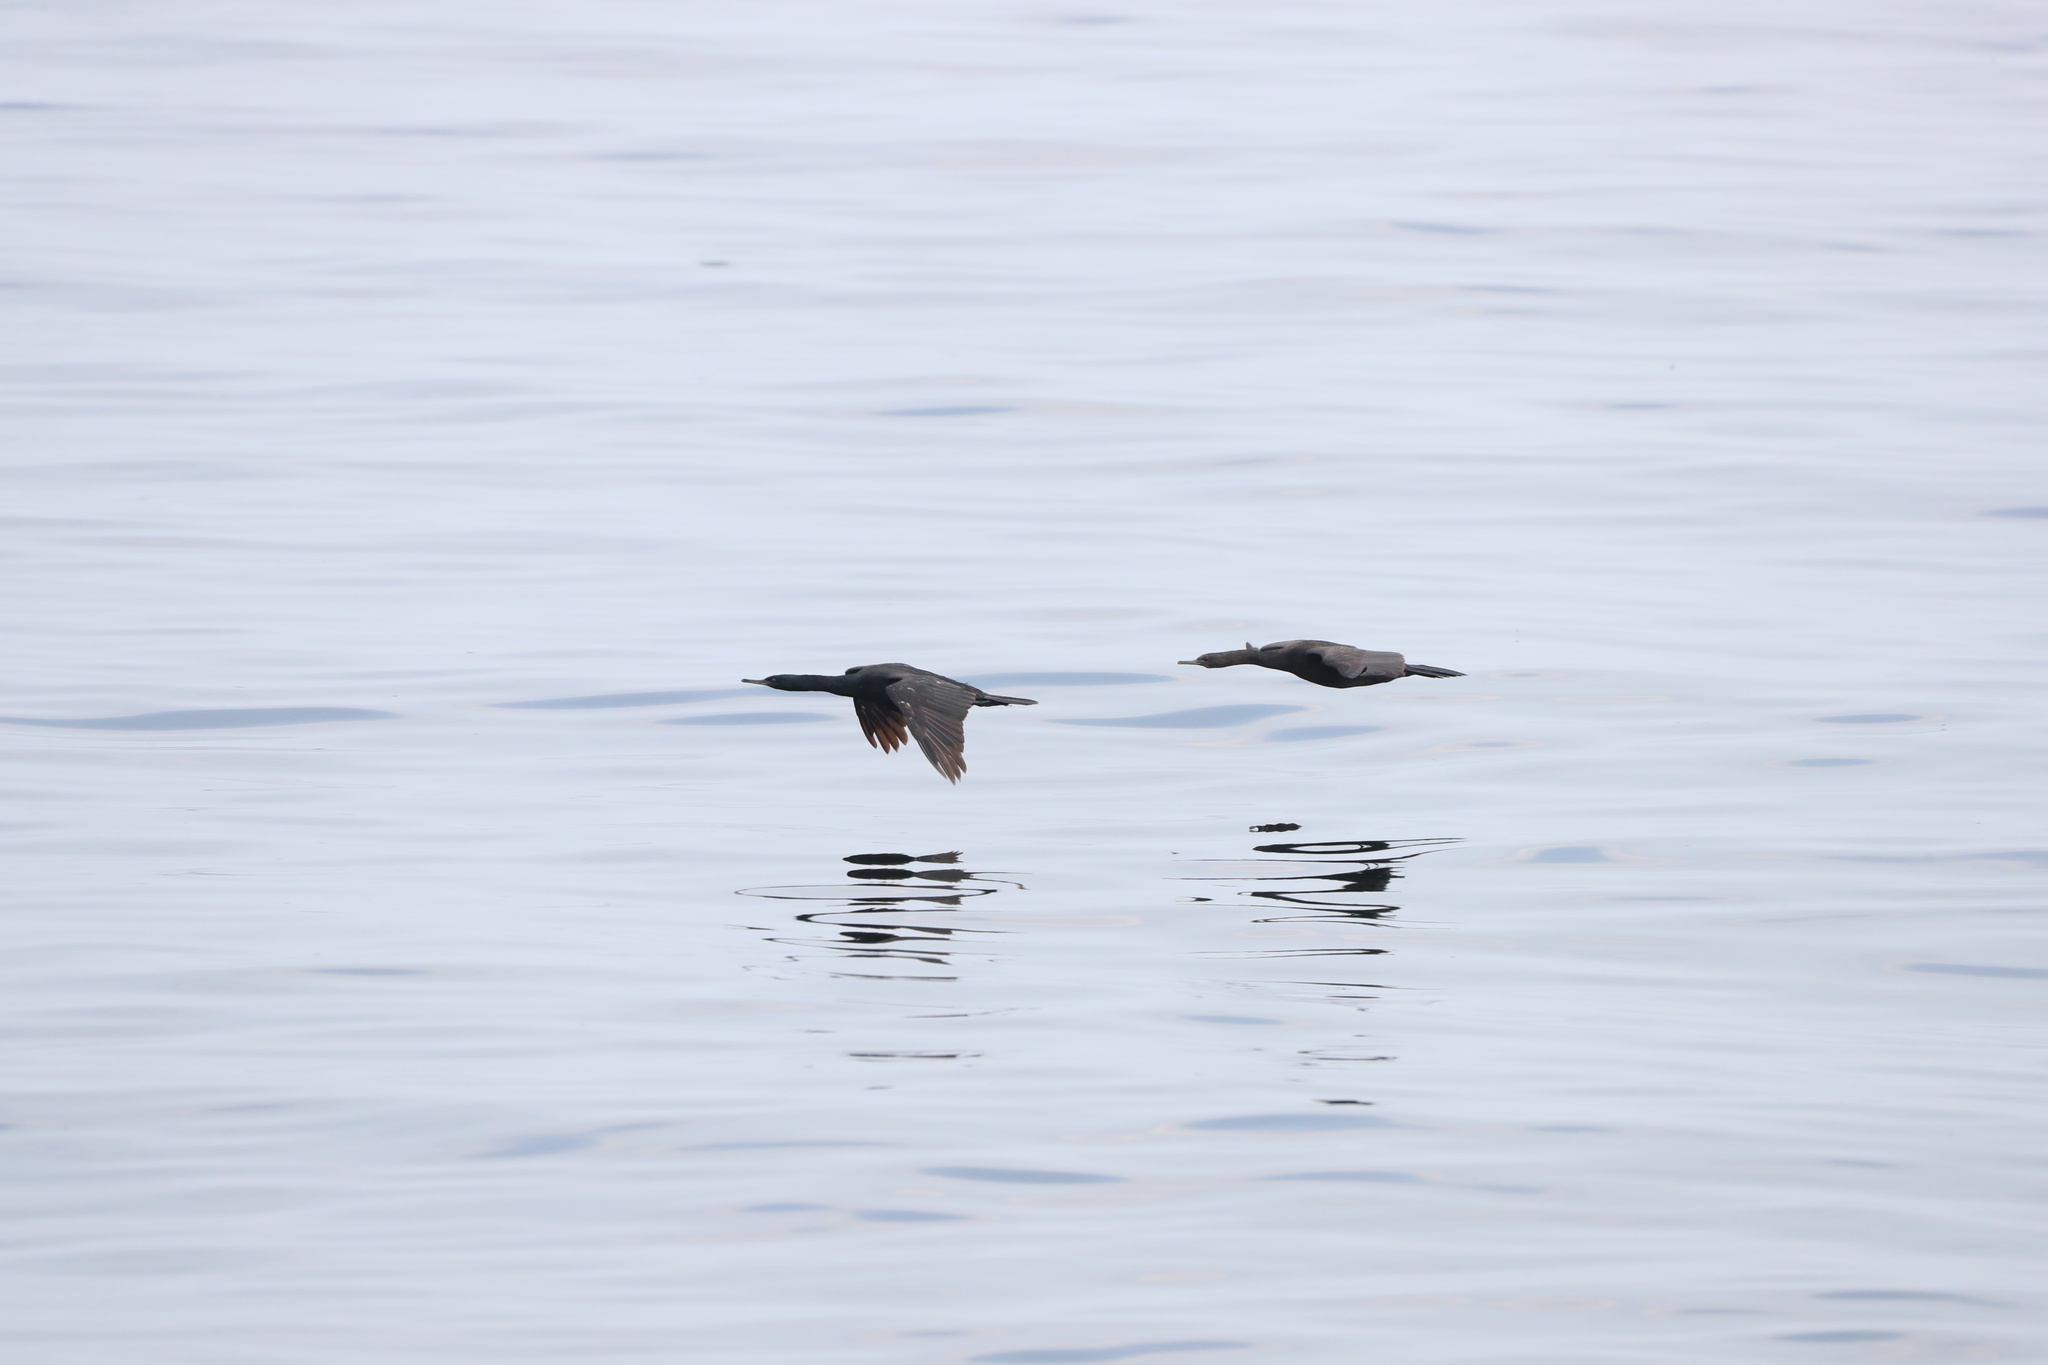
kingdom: Animalia
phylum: Chordata
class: Aves
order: Suliformes
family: Phalacrocoracidae
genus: Phalacrocorax
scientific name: Phalacrocorax pelagicus
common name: Pelagic cormorant
